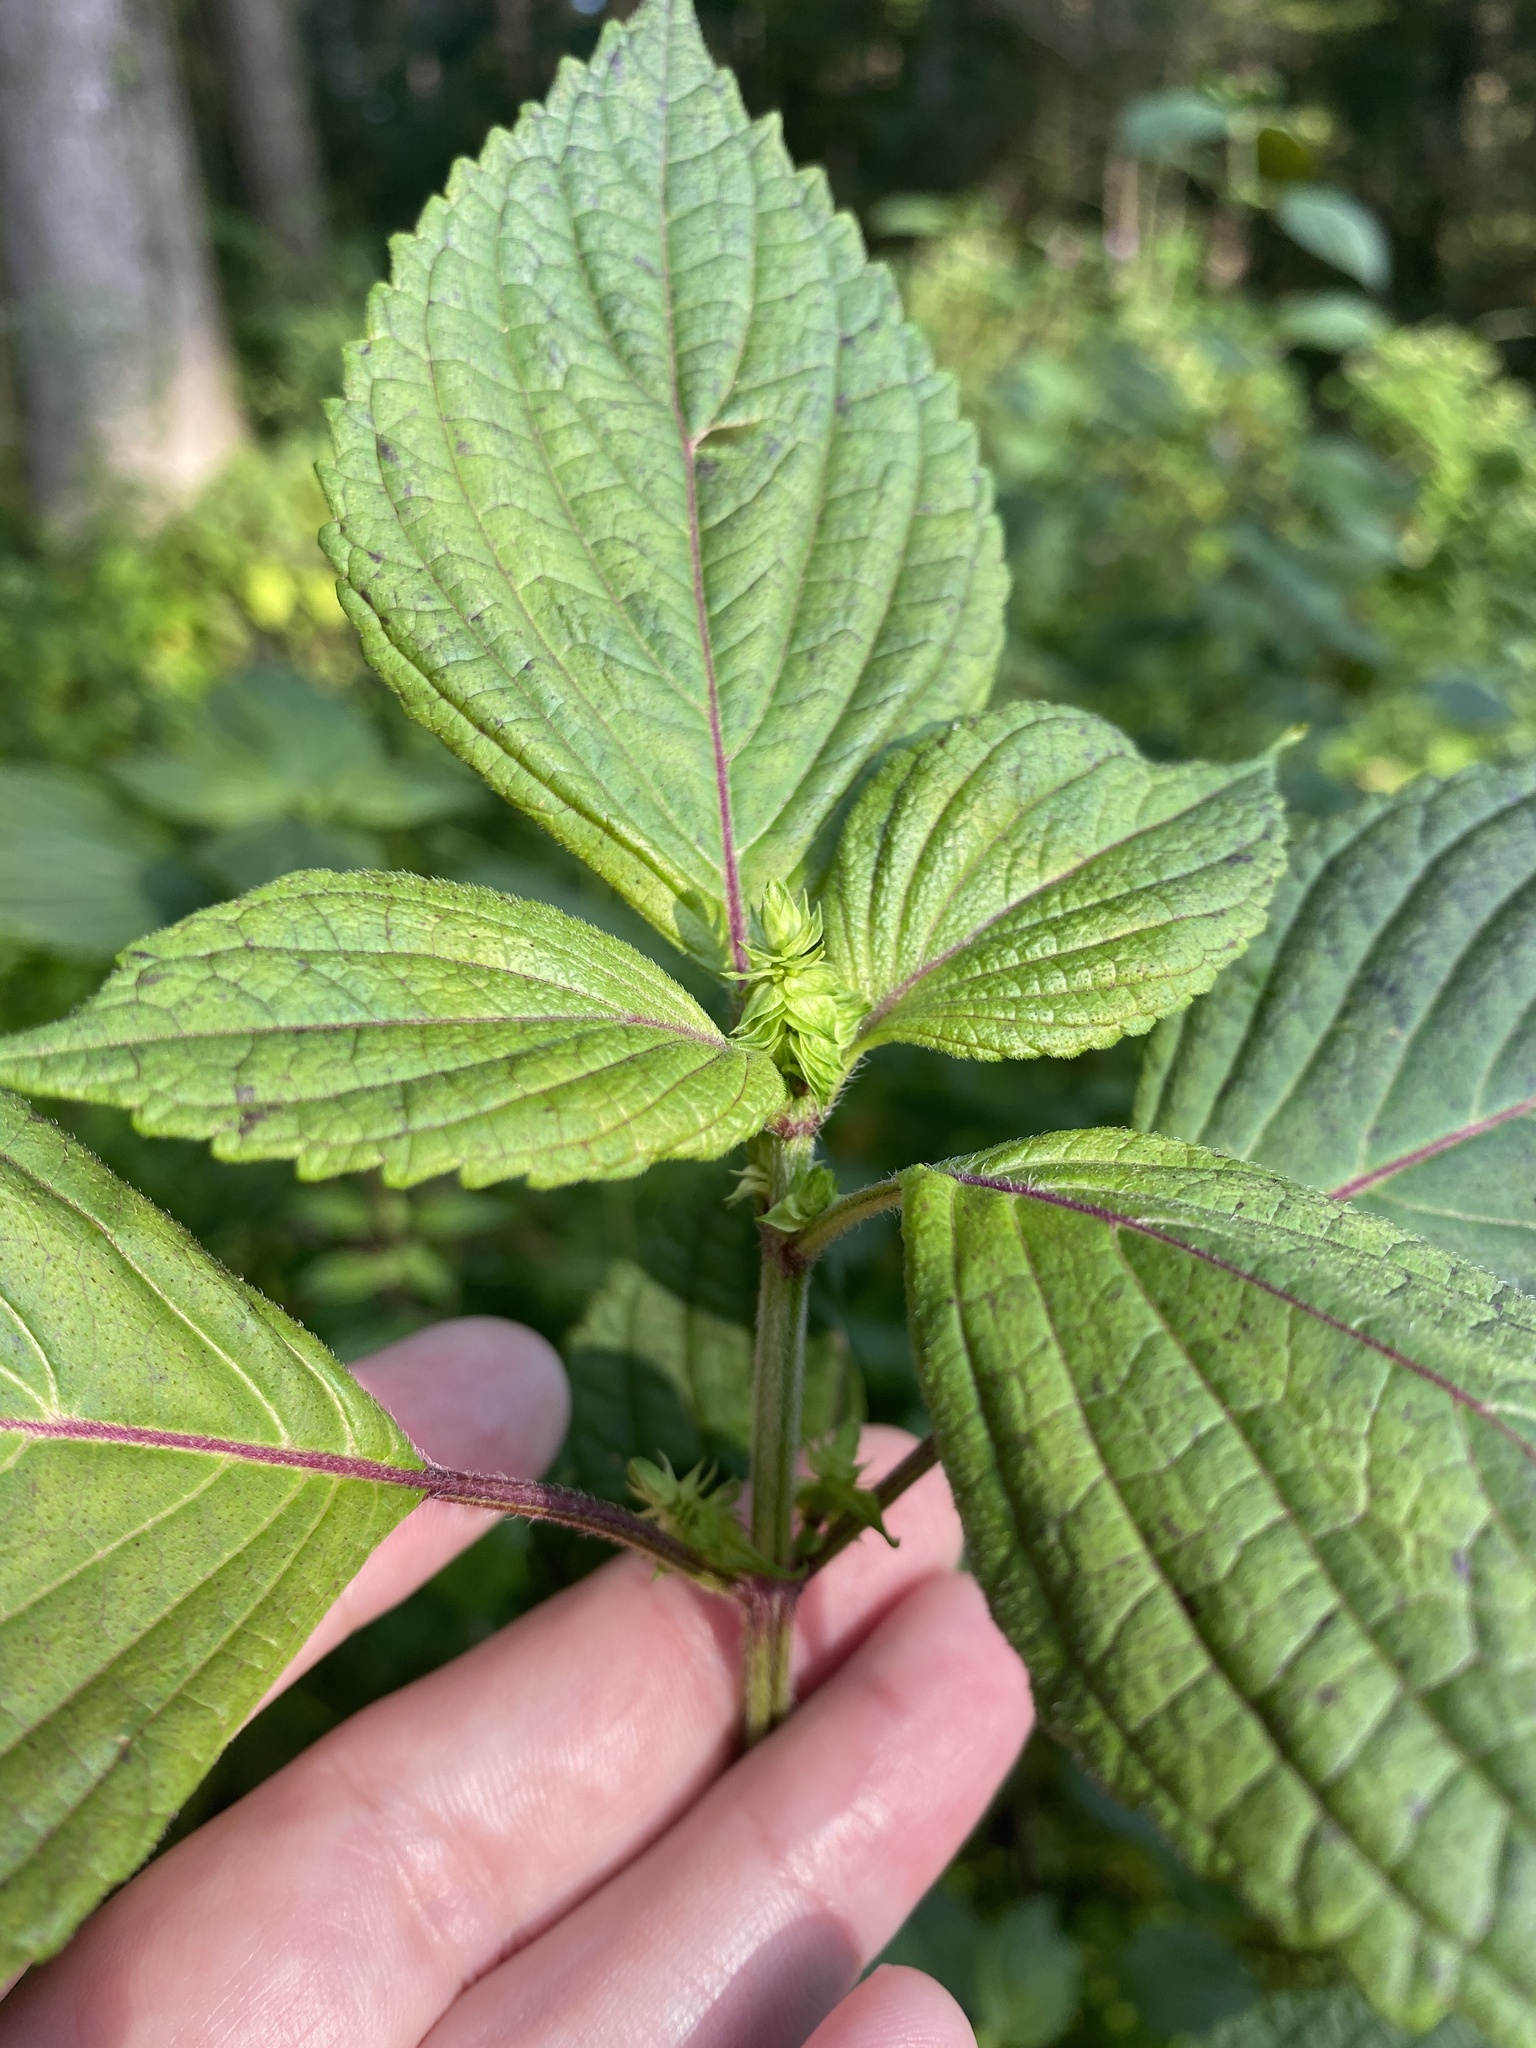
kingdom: Plantae
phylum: Tracheophyta
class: Magnoliopsida
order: Lamiales
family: Lamiaceae
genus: Perilla
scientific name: Perilla frutescens
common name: Perilla
